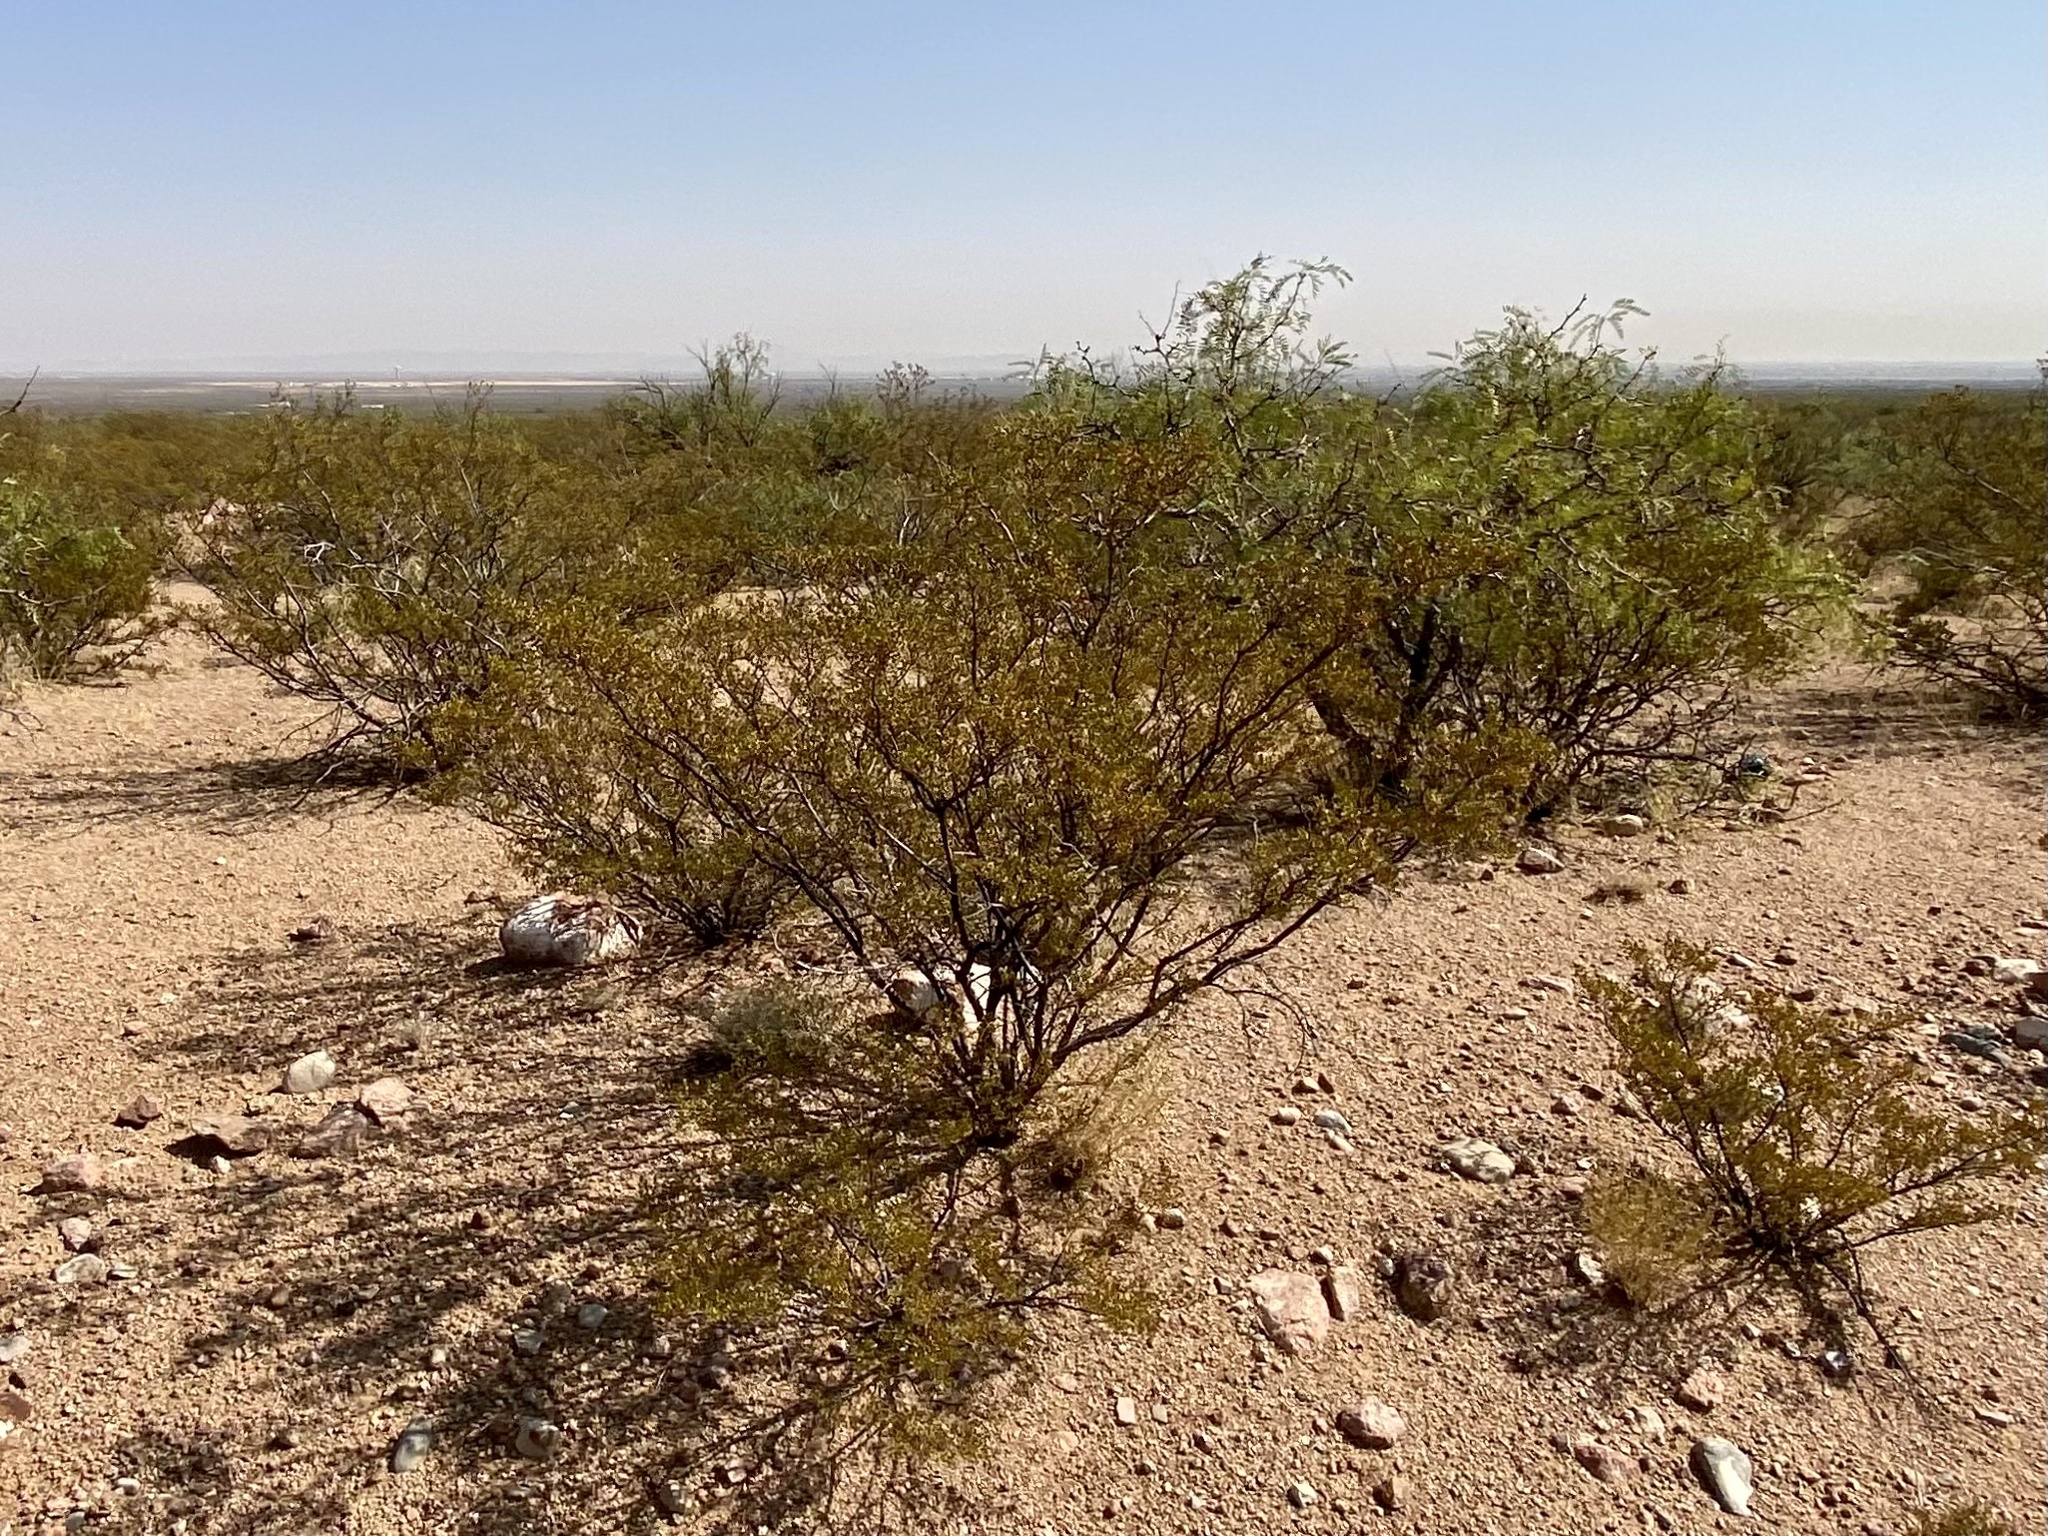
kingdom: Plantae
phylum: Tracheophyta
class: Magnoliopsida
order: Zygophyllales
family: Zygophyllaceae
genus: Larrea
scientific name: Larrea tridentata
